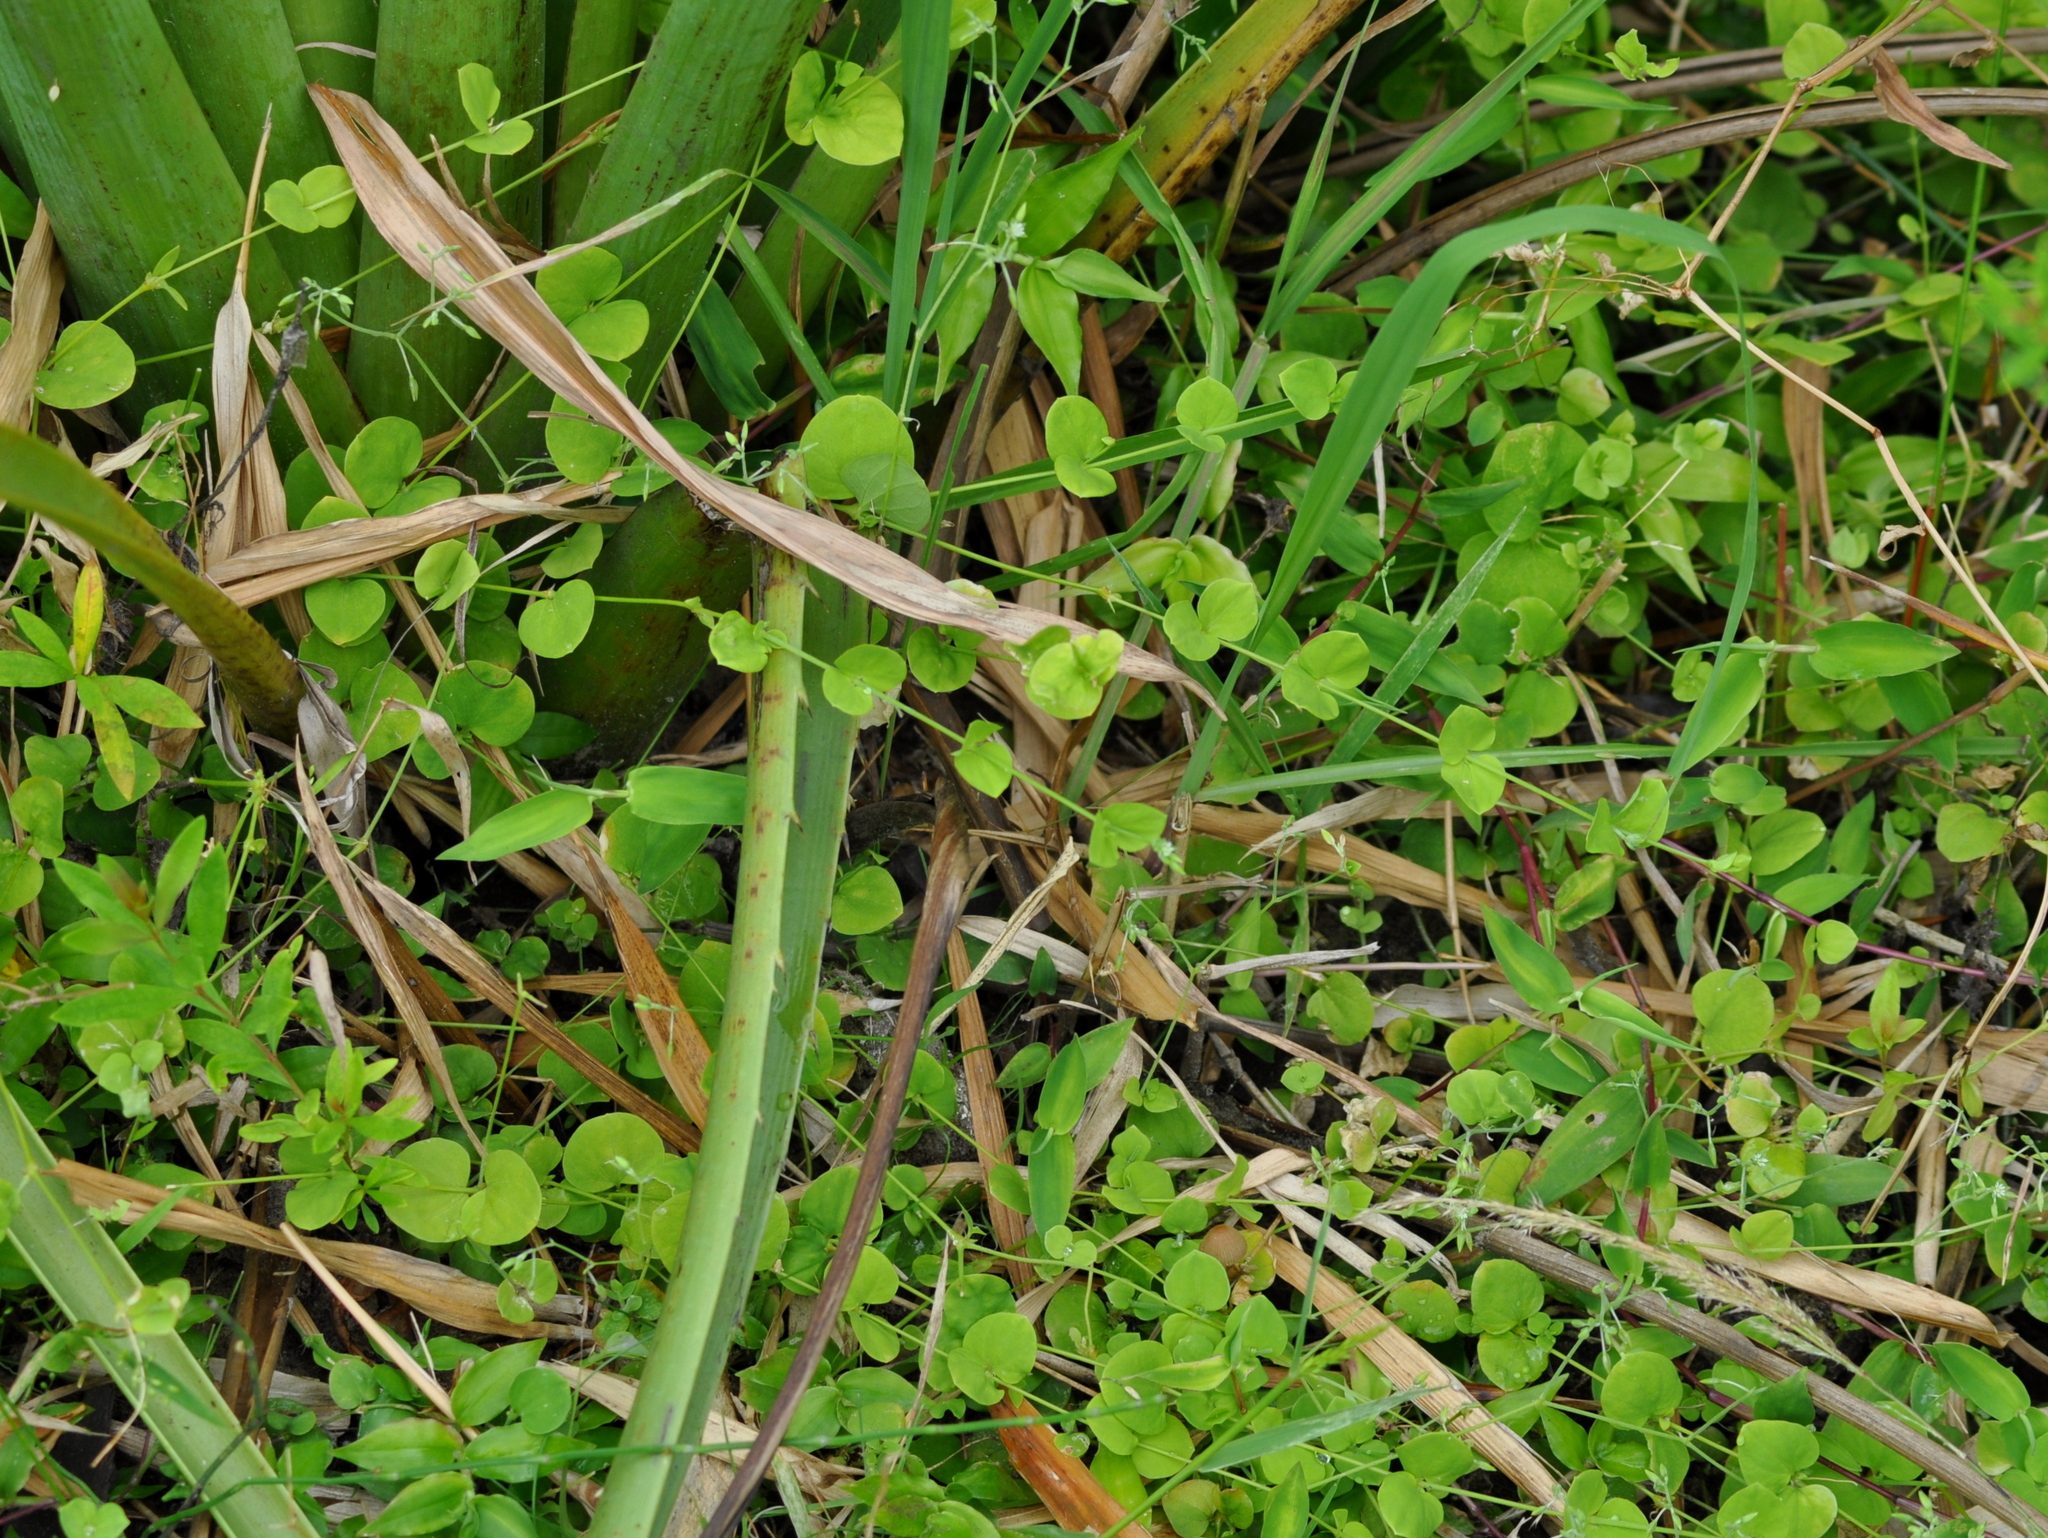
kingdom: Plantae
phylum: Tracheophyta
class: Magnoliopsida
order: Caryophyllales
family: Caryophyllaceae
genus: Drymaria
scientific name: Drymaria cordata
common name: Whitesnow
